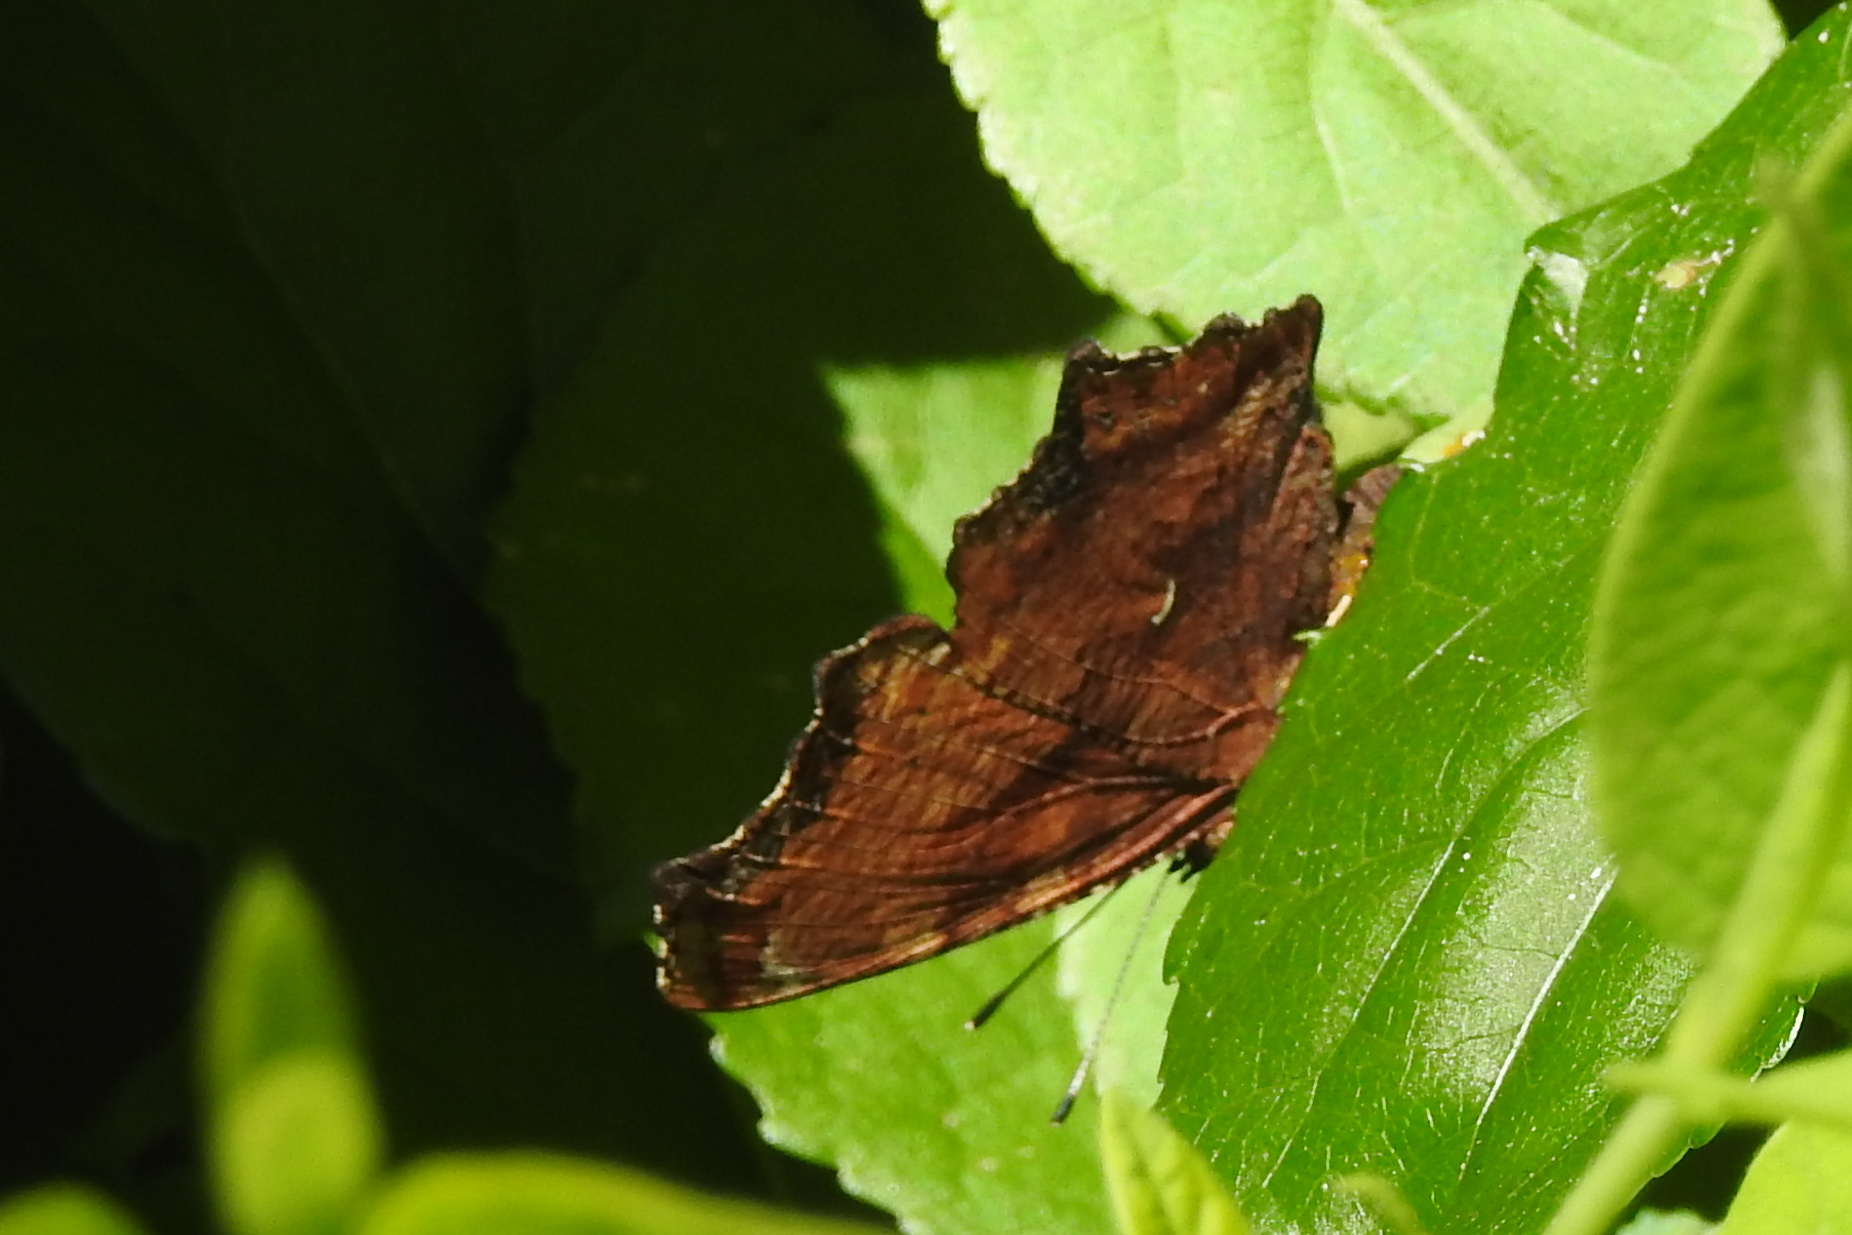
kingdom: Animalia
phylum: Arthropoda
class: Insecta
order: Lepidoptera
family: Nymphalidae
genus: Polygonia
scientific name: Polygonia comma
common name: Eastern comma
